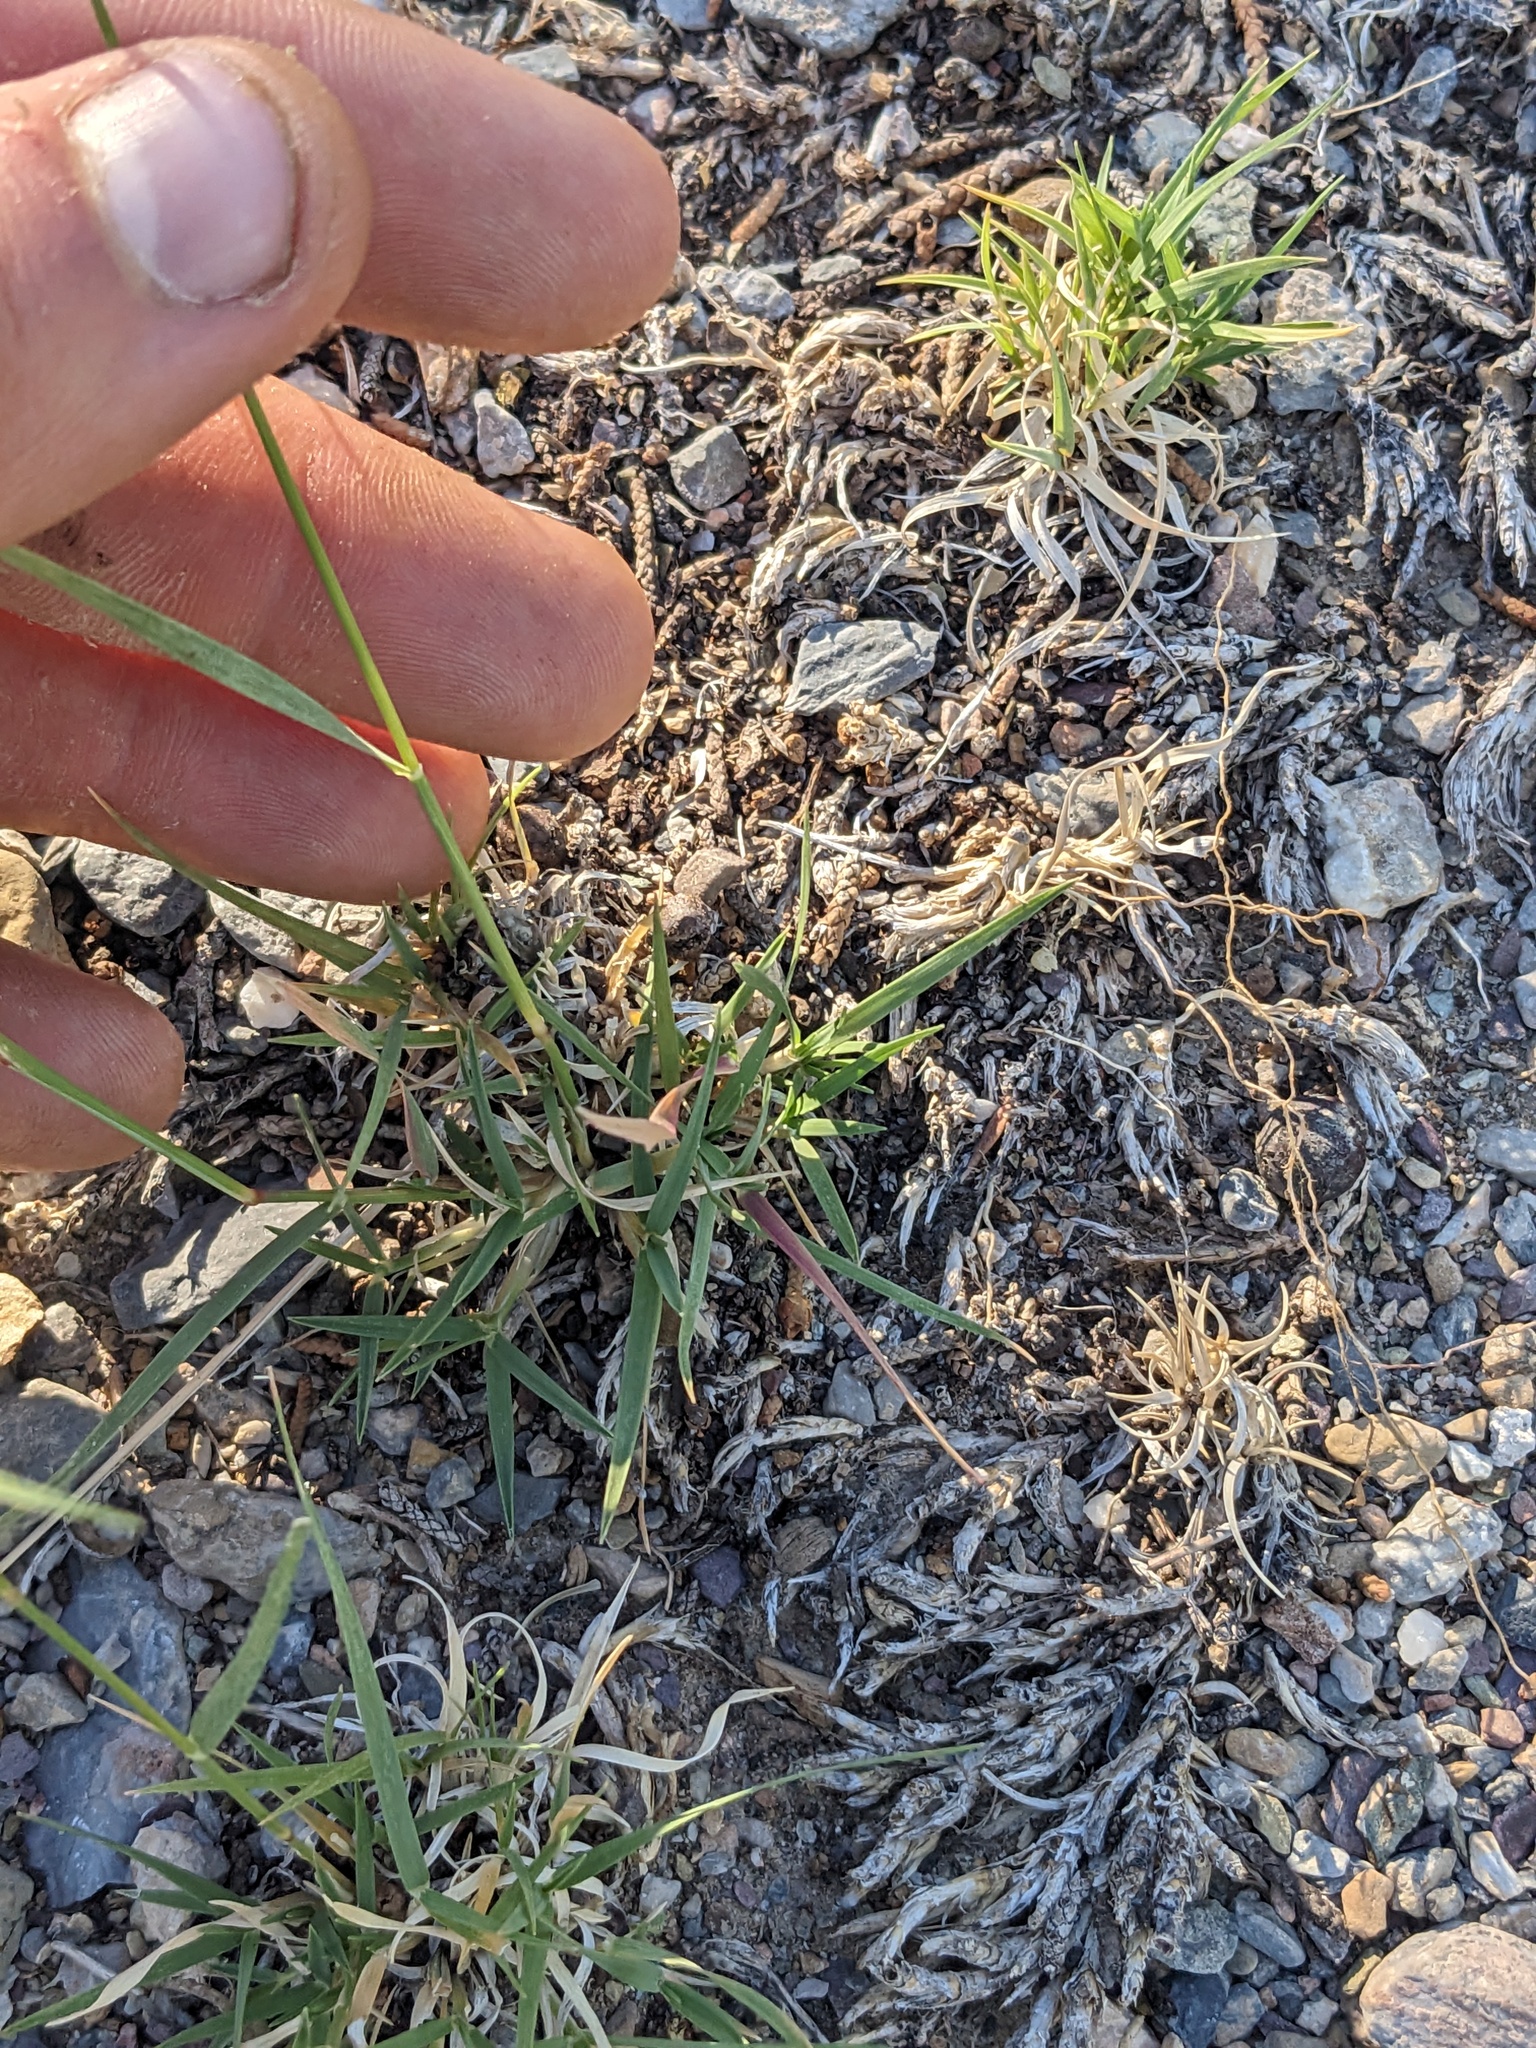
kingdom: Plantae
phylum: Tracheophyta
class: Liliopsida
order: Poales
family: Poaceae
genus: Bouteloua
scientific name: Bouteloua gracilis
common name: Blue grama
